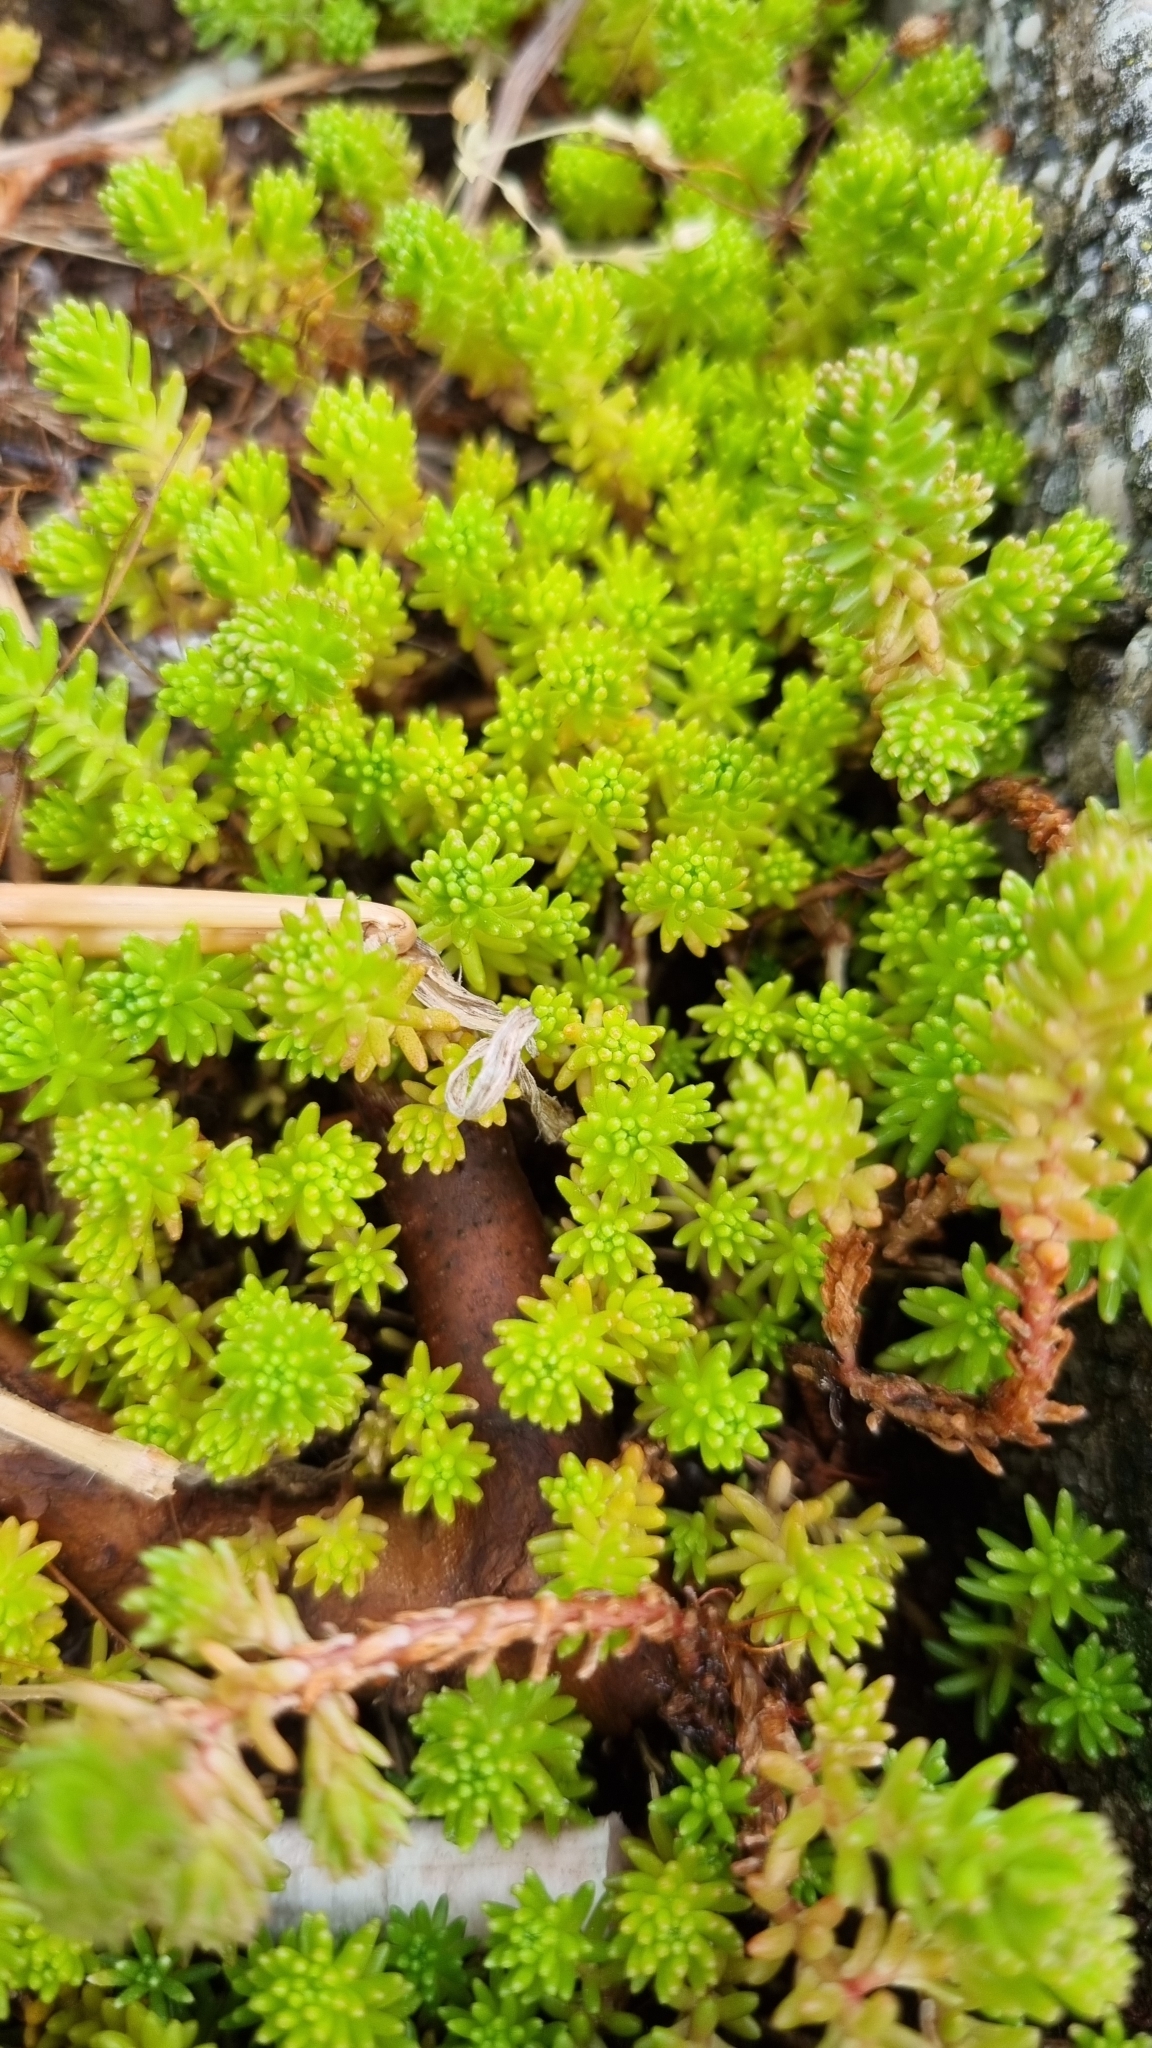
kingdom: Plantae
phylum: Tracheophyta
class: Magnoliopsida
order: Saxifragales
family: Crassulaceae
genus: Sedum
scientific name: Sedum sexangulare
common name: Tasteless stonecrop
